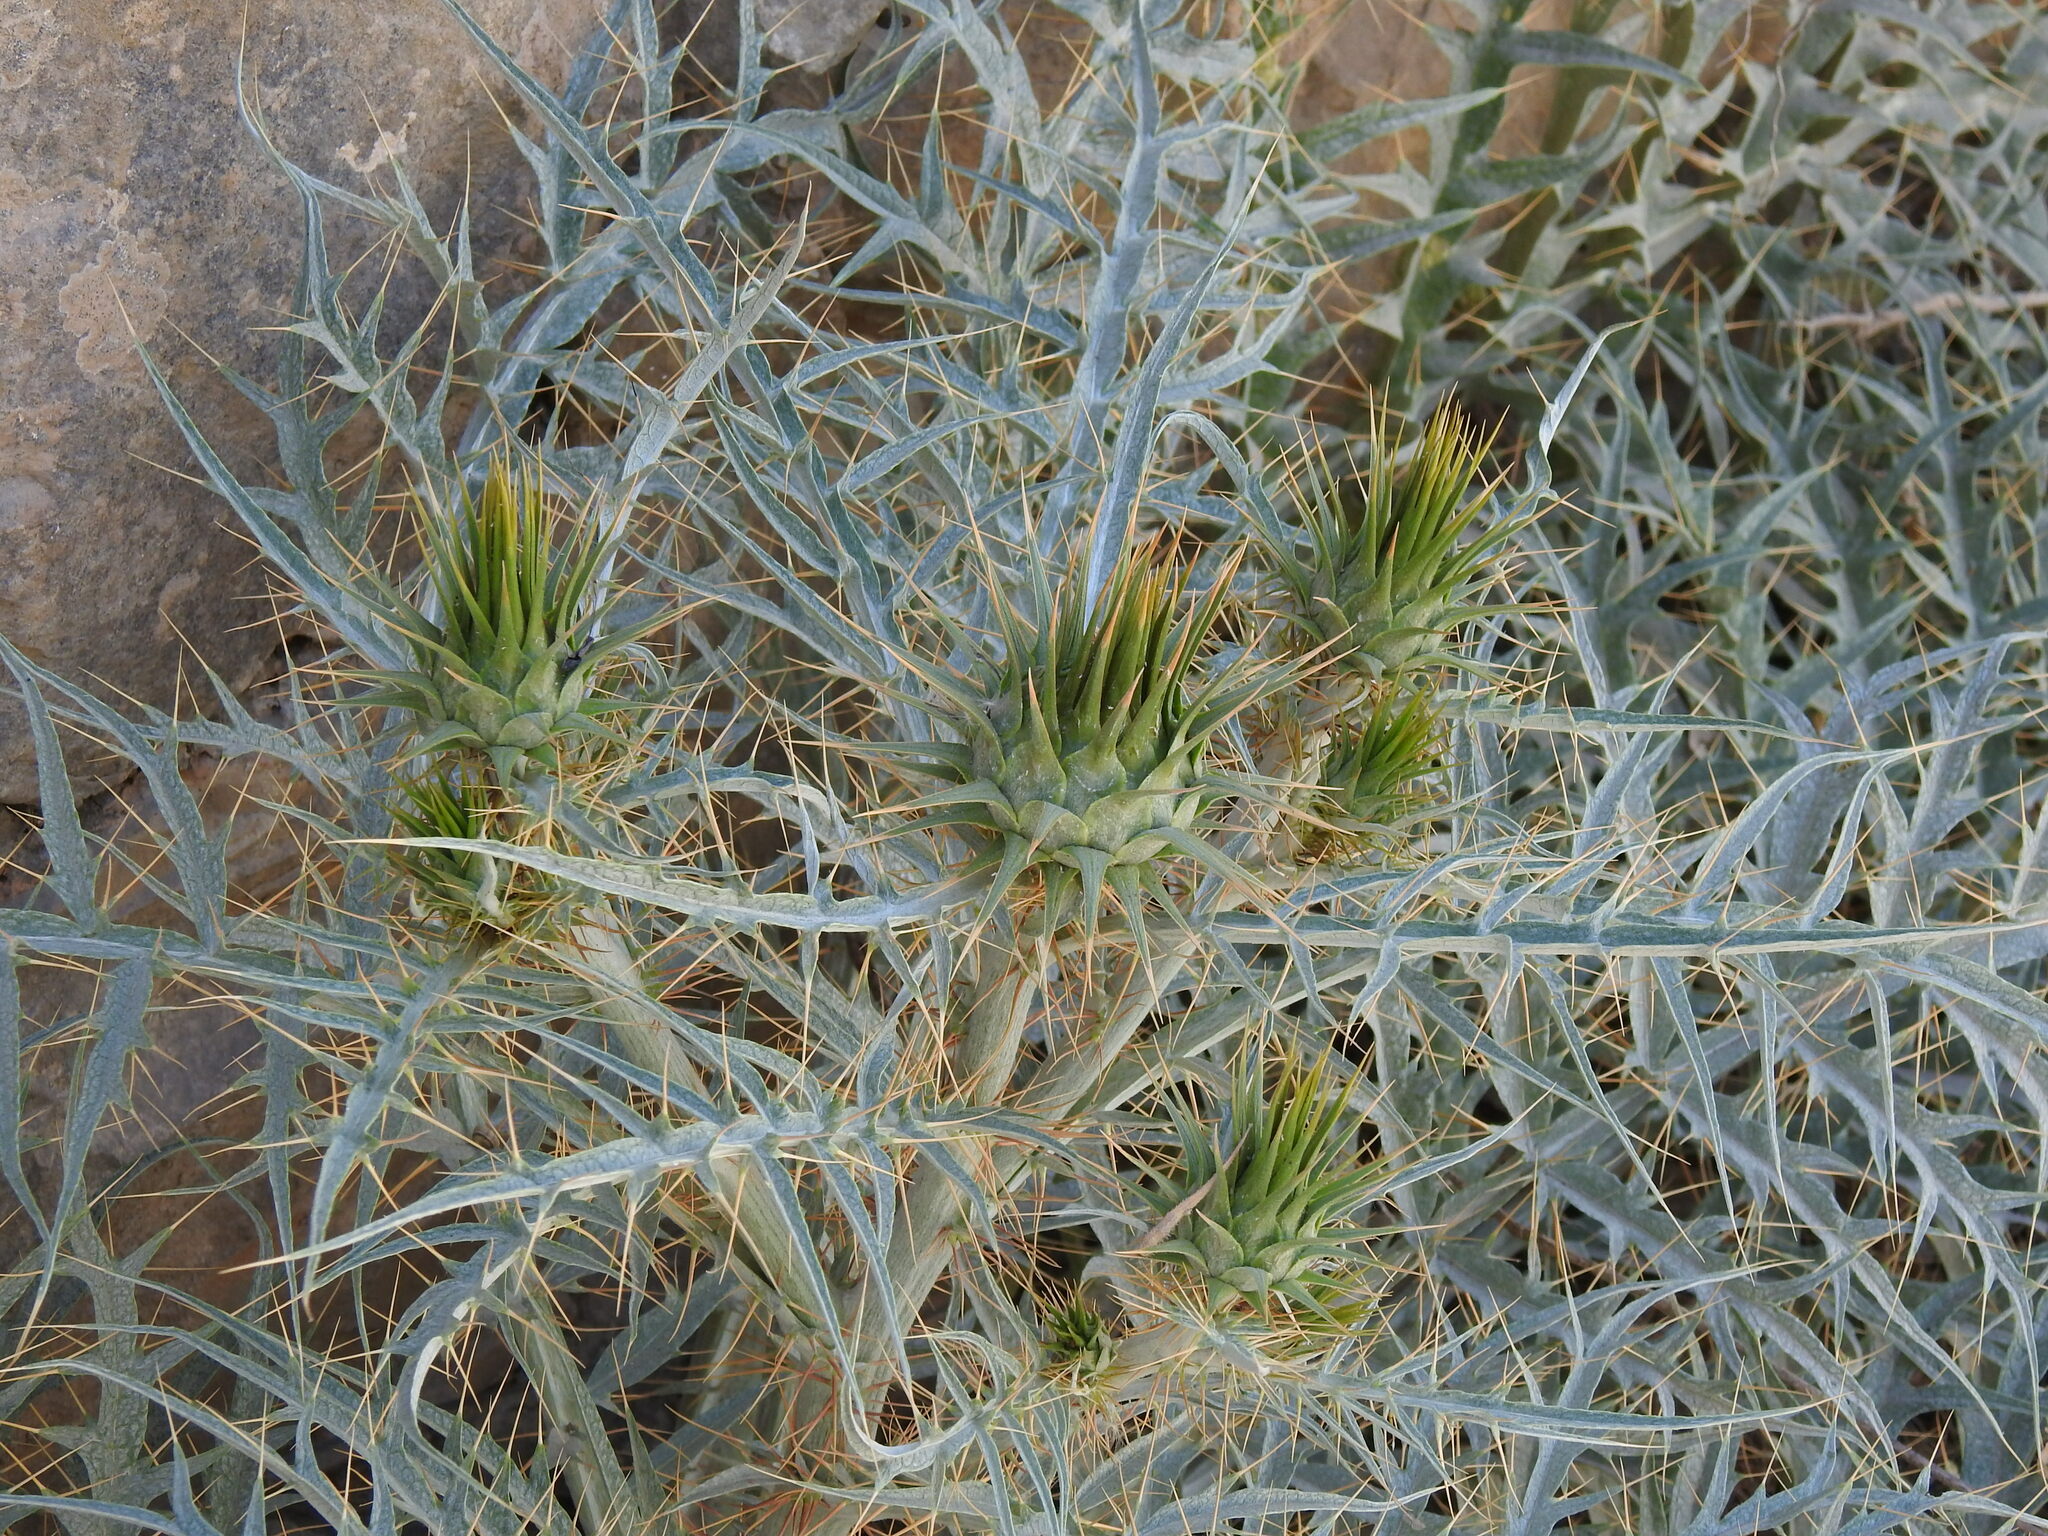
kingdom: Plantae
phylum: Tracheophyta
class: Magnoliopsida
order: Asterales
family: Asteraceae
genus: Cynara
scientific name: Cynara cardunculus
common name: Globe artichoke
